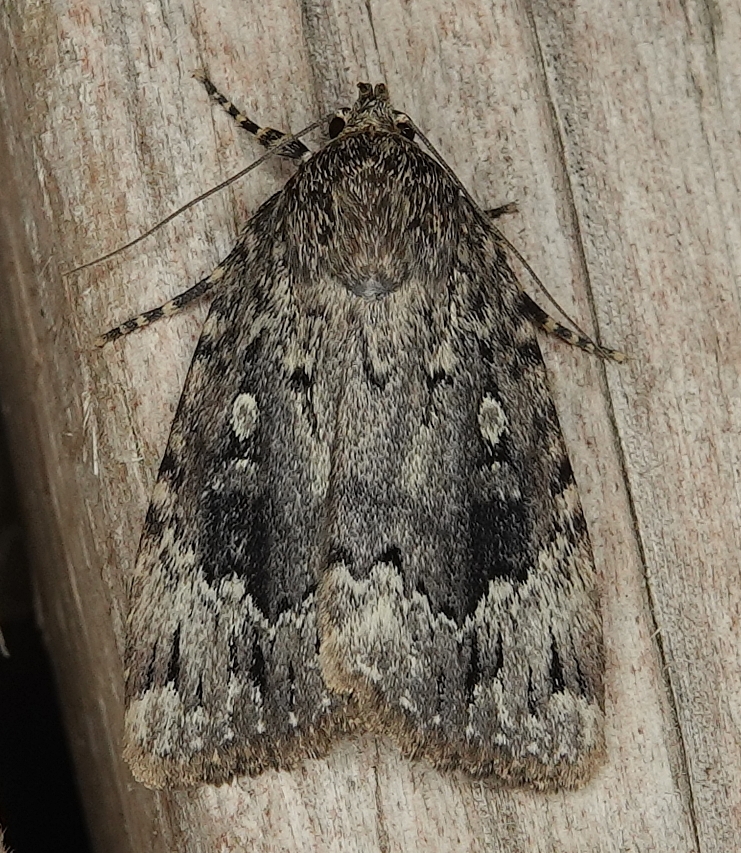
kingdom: Animalia
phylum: Arthropoda
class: Insecta
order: Lepidoptera
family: Noctuidae
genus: Amphipyra
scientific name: Amphipyra pyramidoides
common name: American copper underwing
